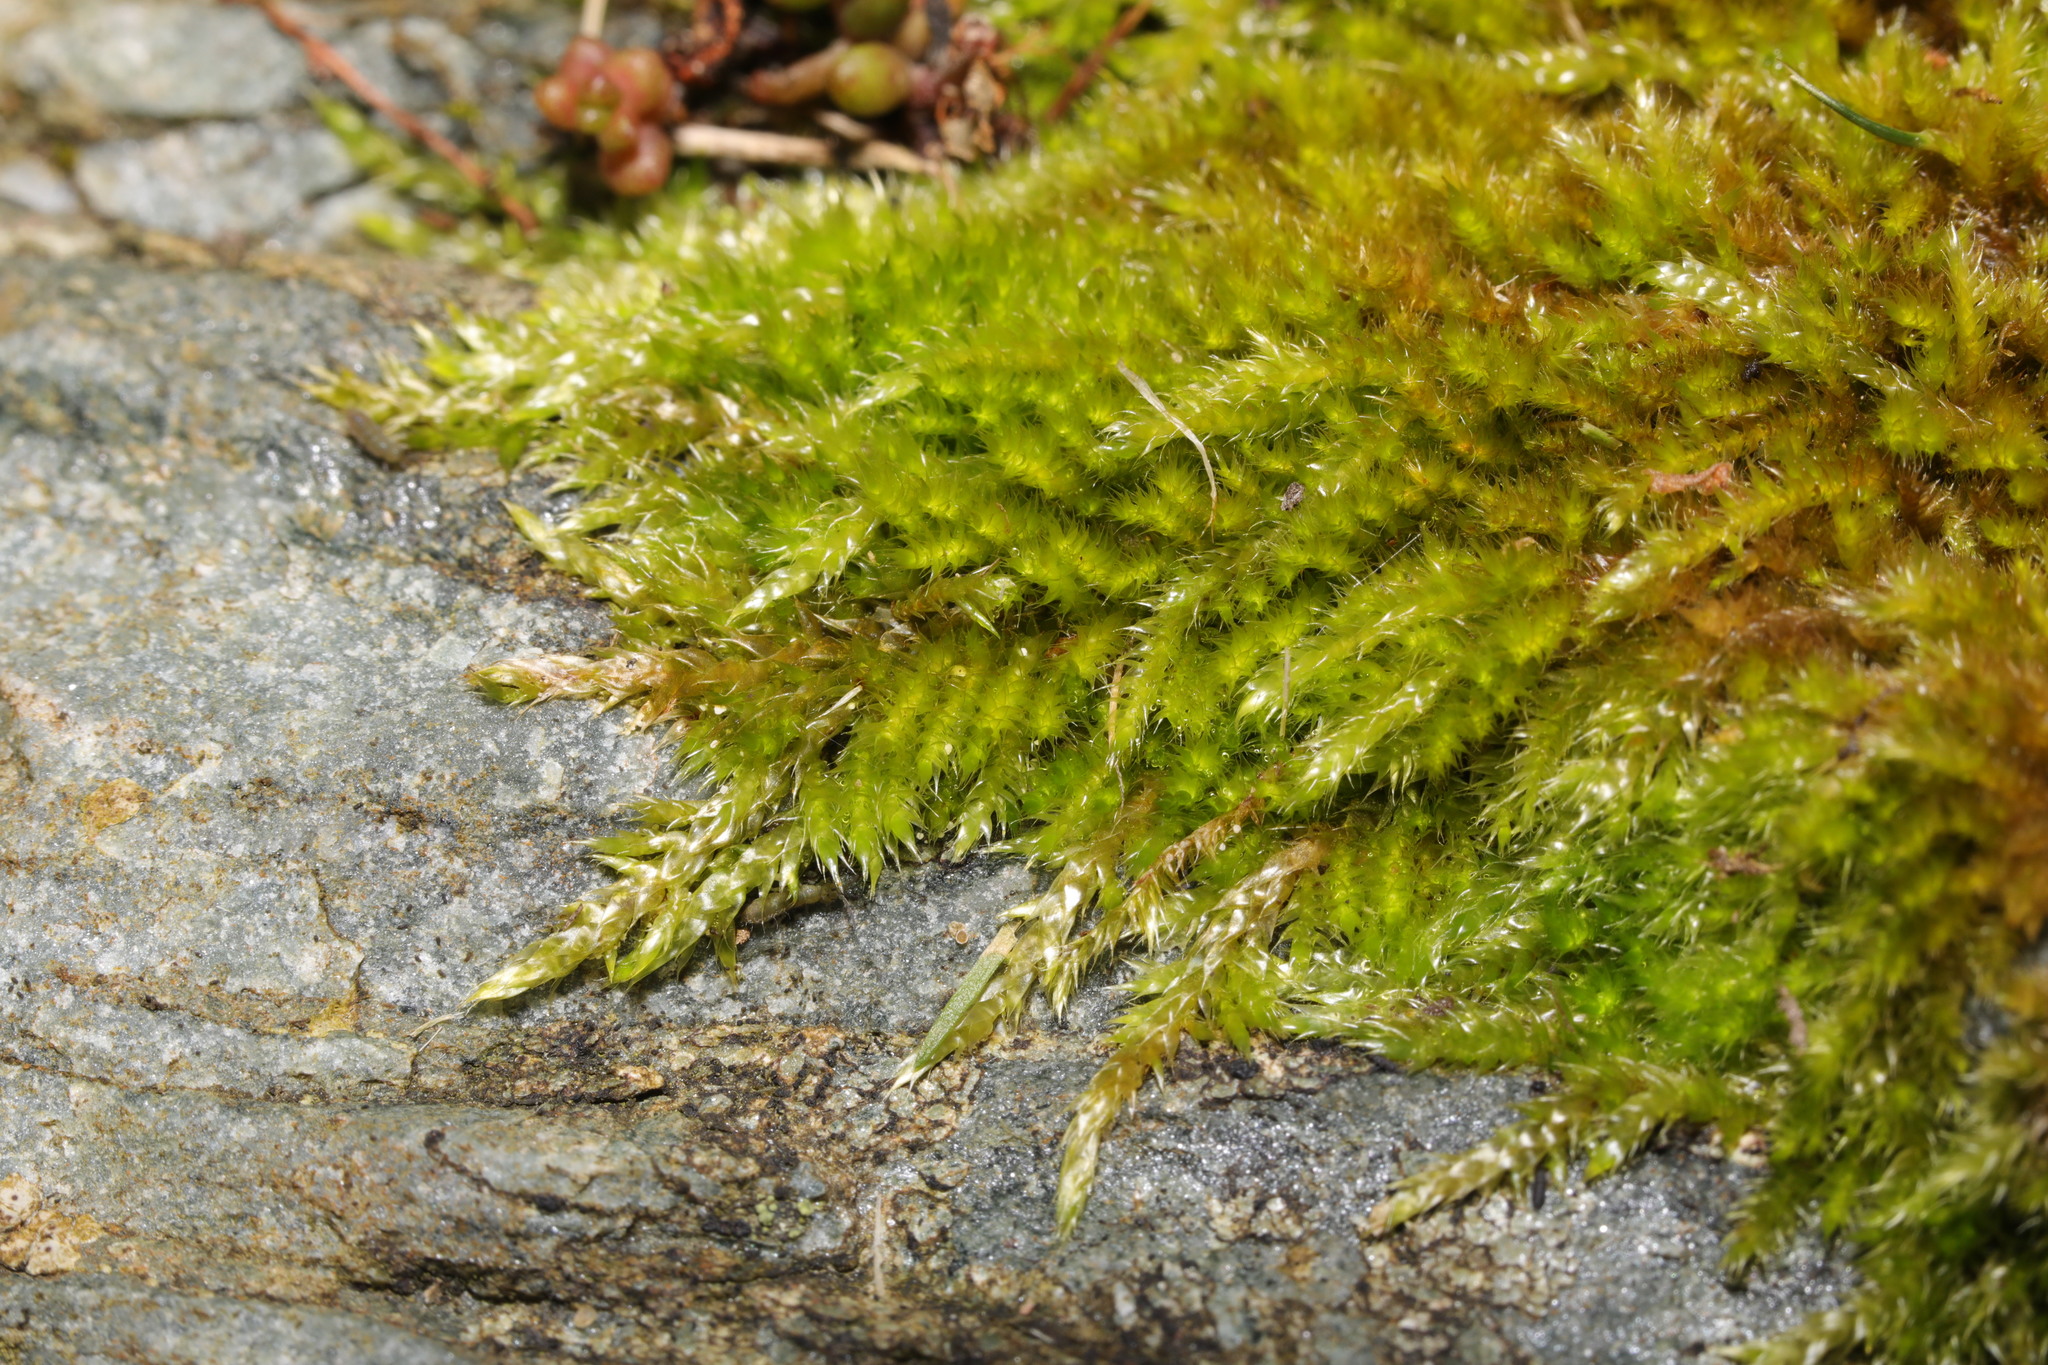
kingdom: Plantae
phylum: Bryophyta
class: Bryopsida
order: Hypnales
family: Brachytheciaceae
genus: Homalothecium
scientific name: Homalothecium sericeum
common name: Silky wall feather-moss
